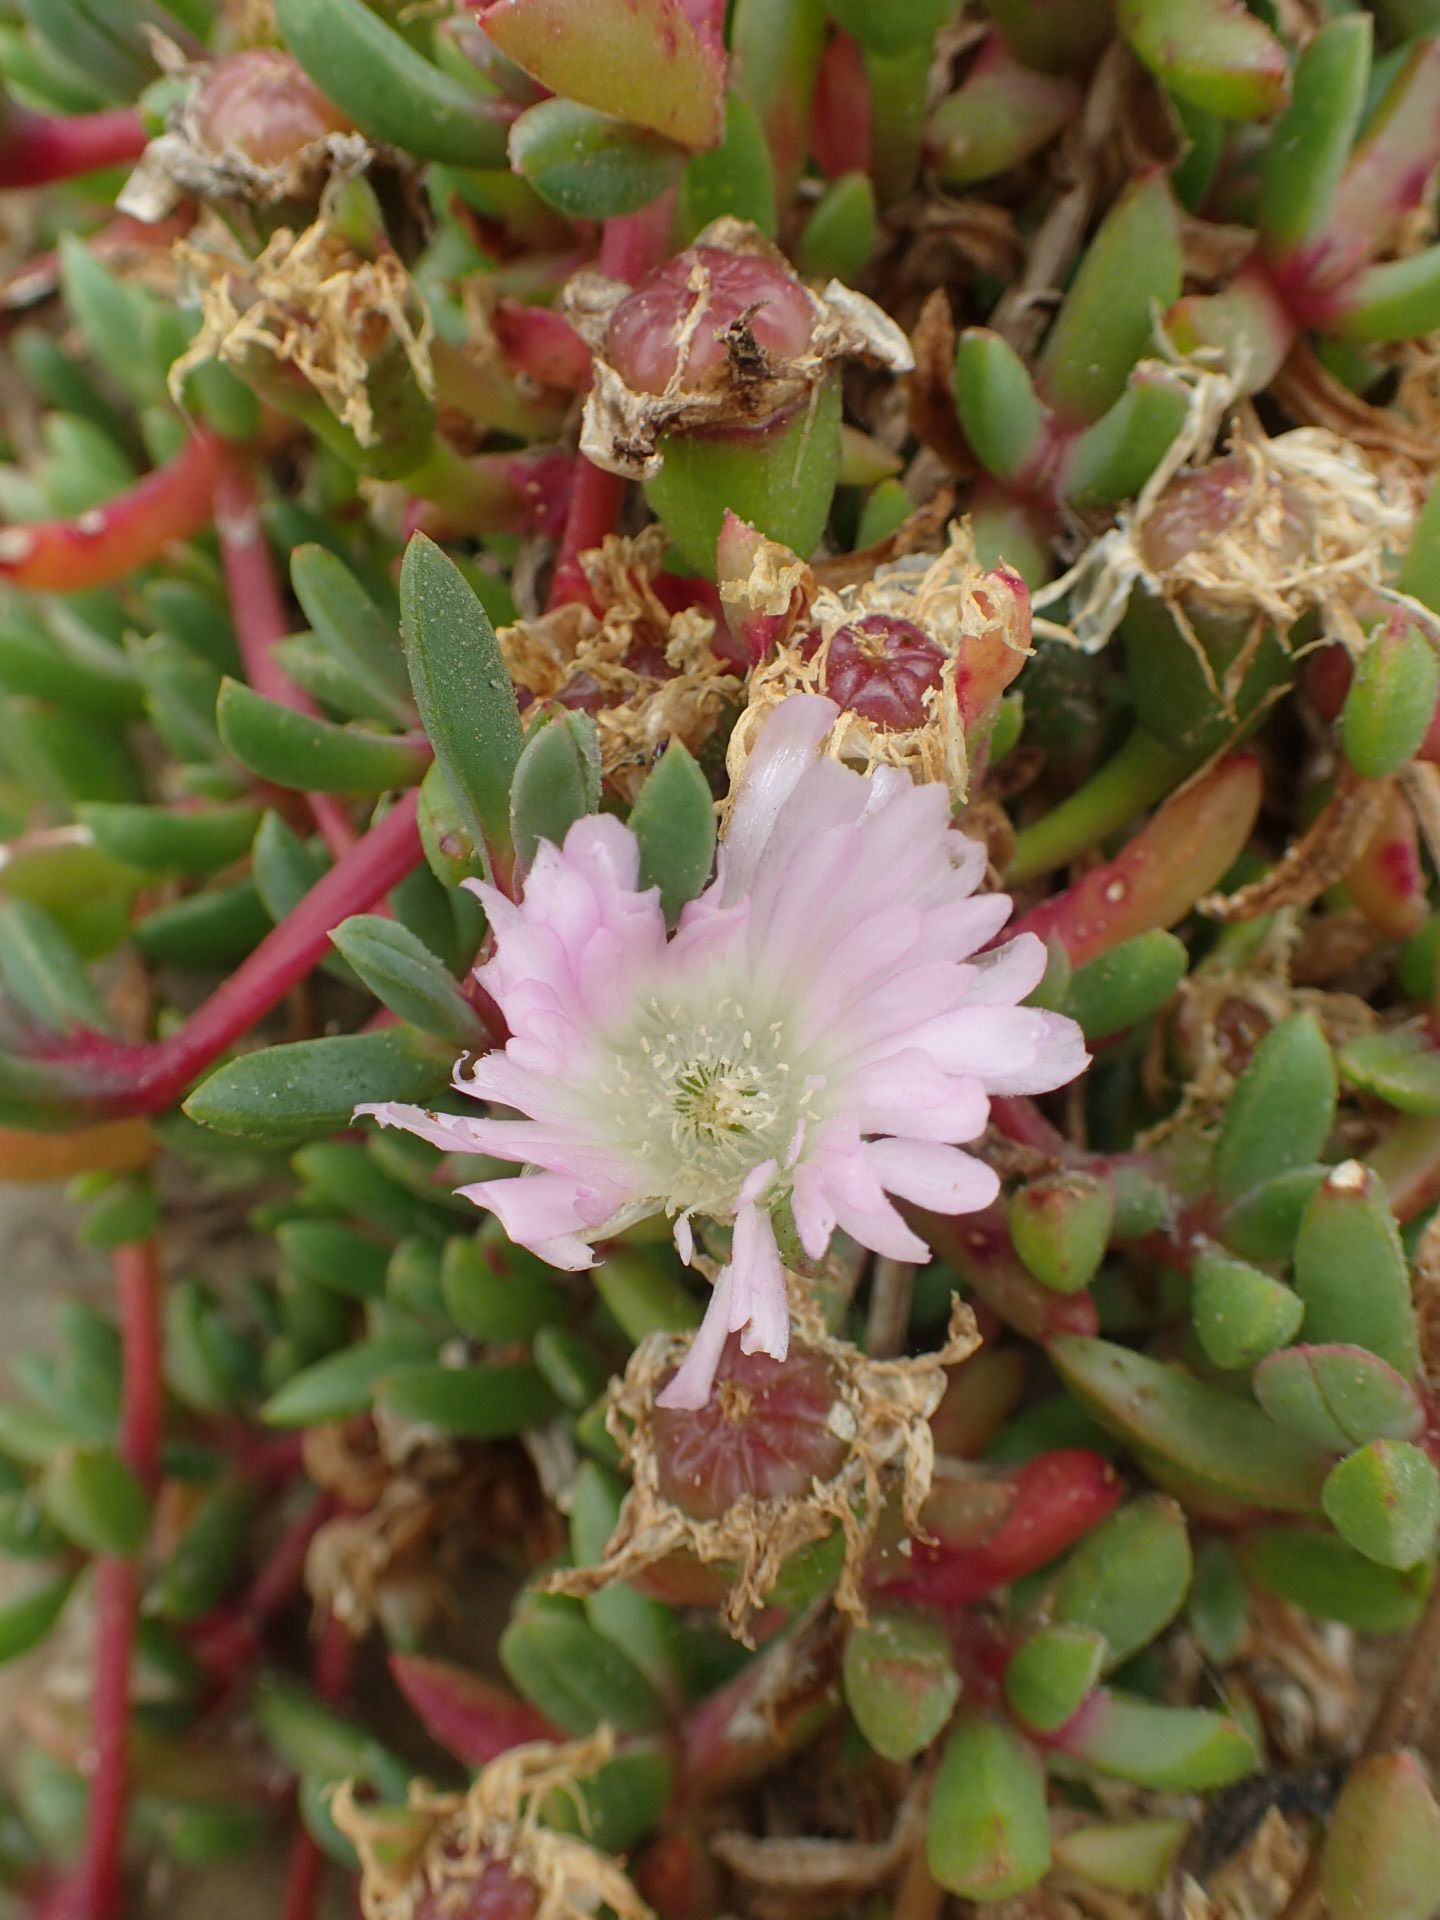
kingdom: Plantae
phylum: Tracheophyta
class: Magnoliopsida
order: Caryophyllales
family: Aizoaceae
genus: Disphyma
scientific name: Disphyma australe
